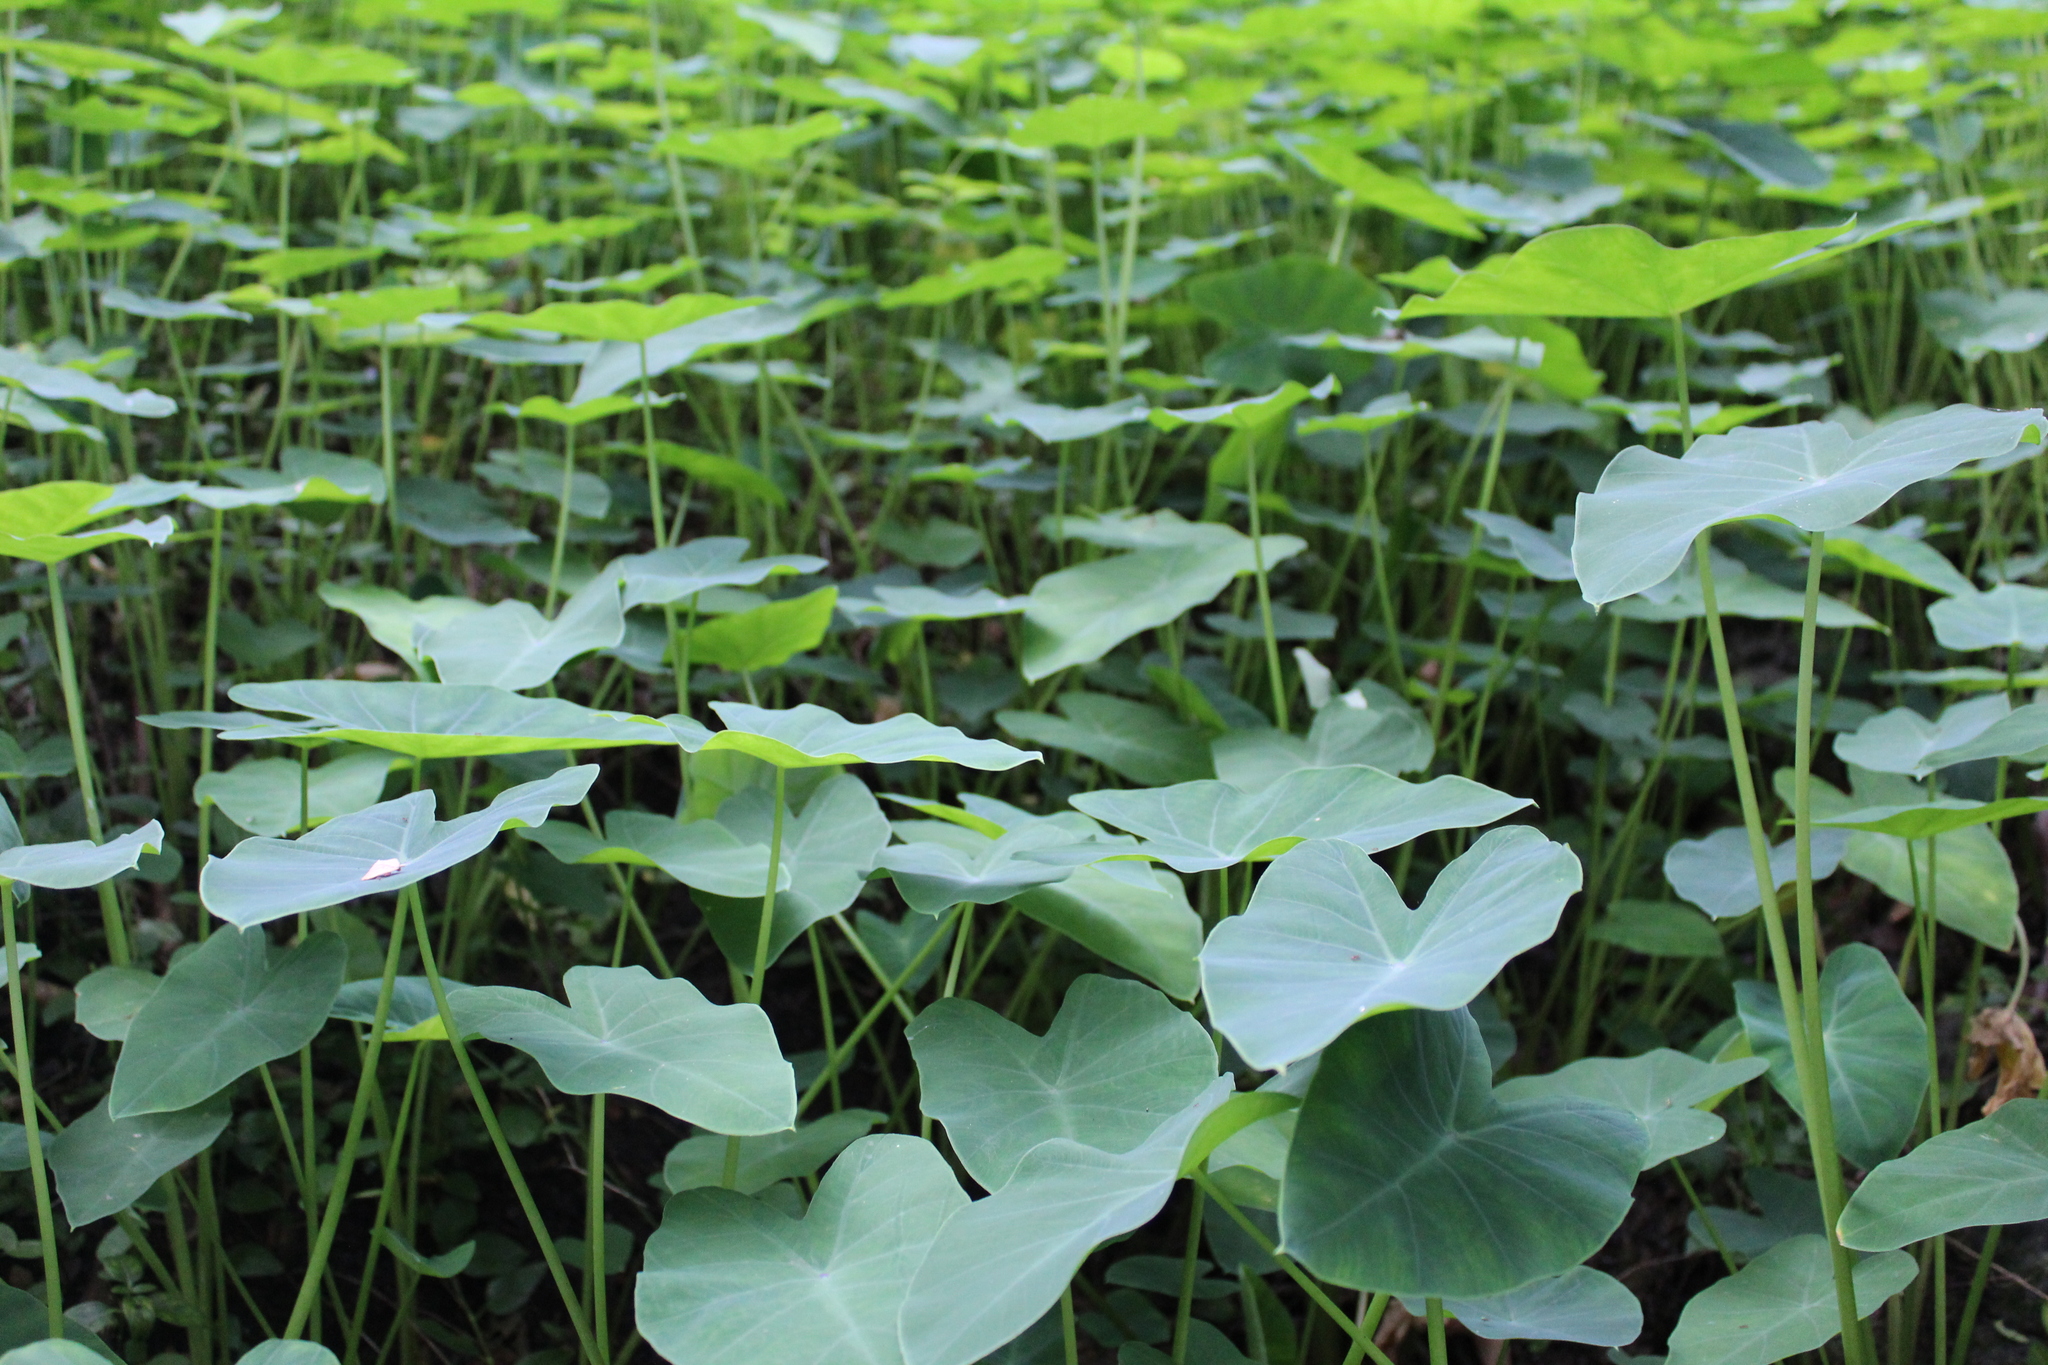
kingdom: Plantae
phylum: Tracheophyta
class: Liliopsida
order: Alismatales
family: Araceae
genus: Colocasia
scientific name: Colocasia esculenta
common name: Taro
